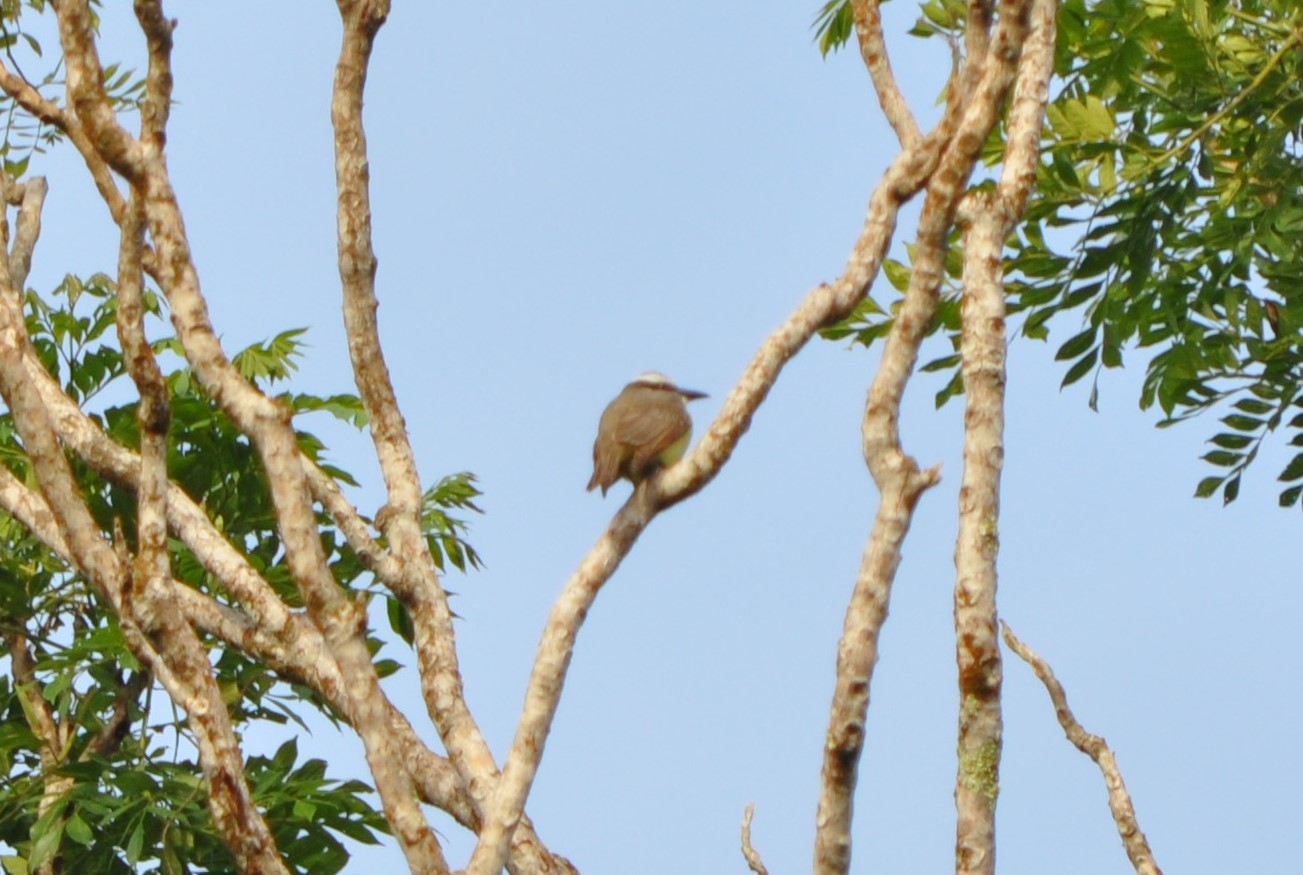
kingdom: Animalia
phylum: Chordata
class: Aves
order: Passeriformes
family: Tyrannidae
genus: Megarynchus
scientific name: Megarynchus pitangua
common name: Boat-billed flycatcher
